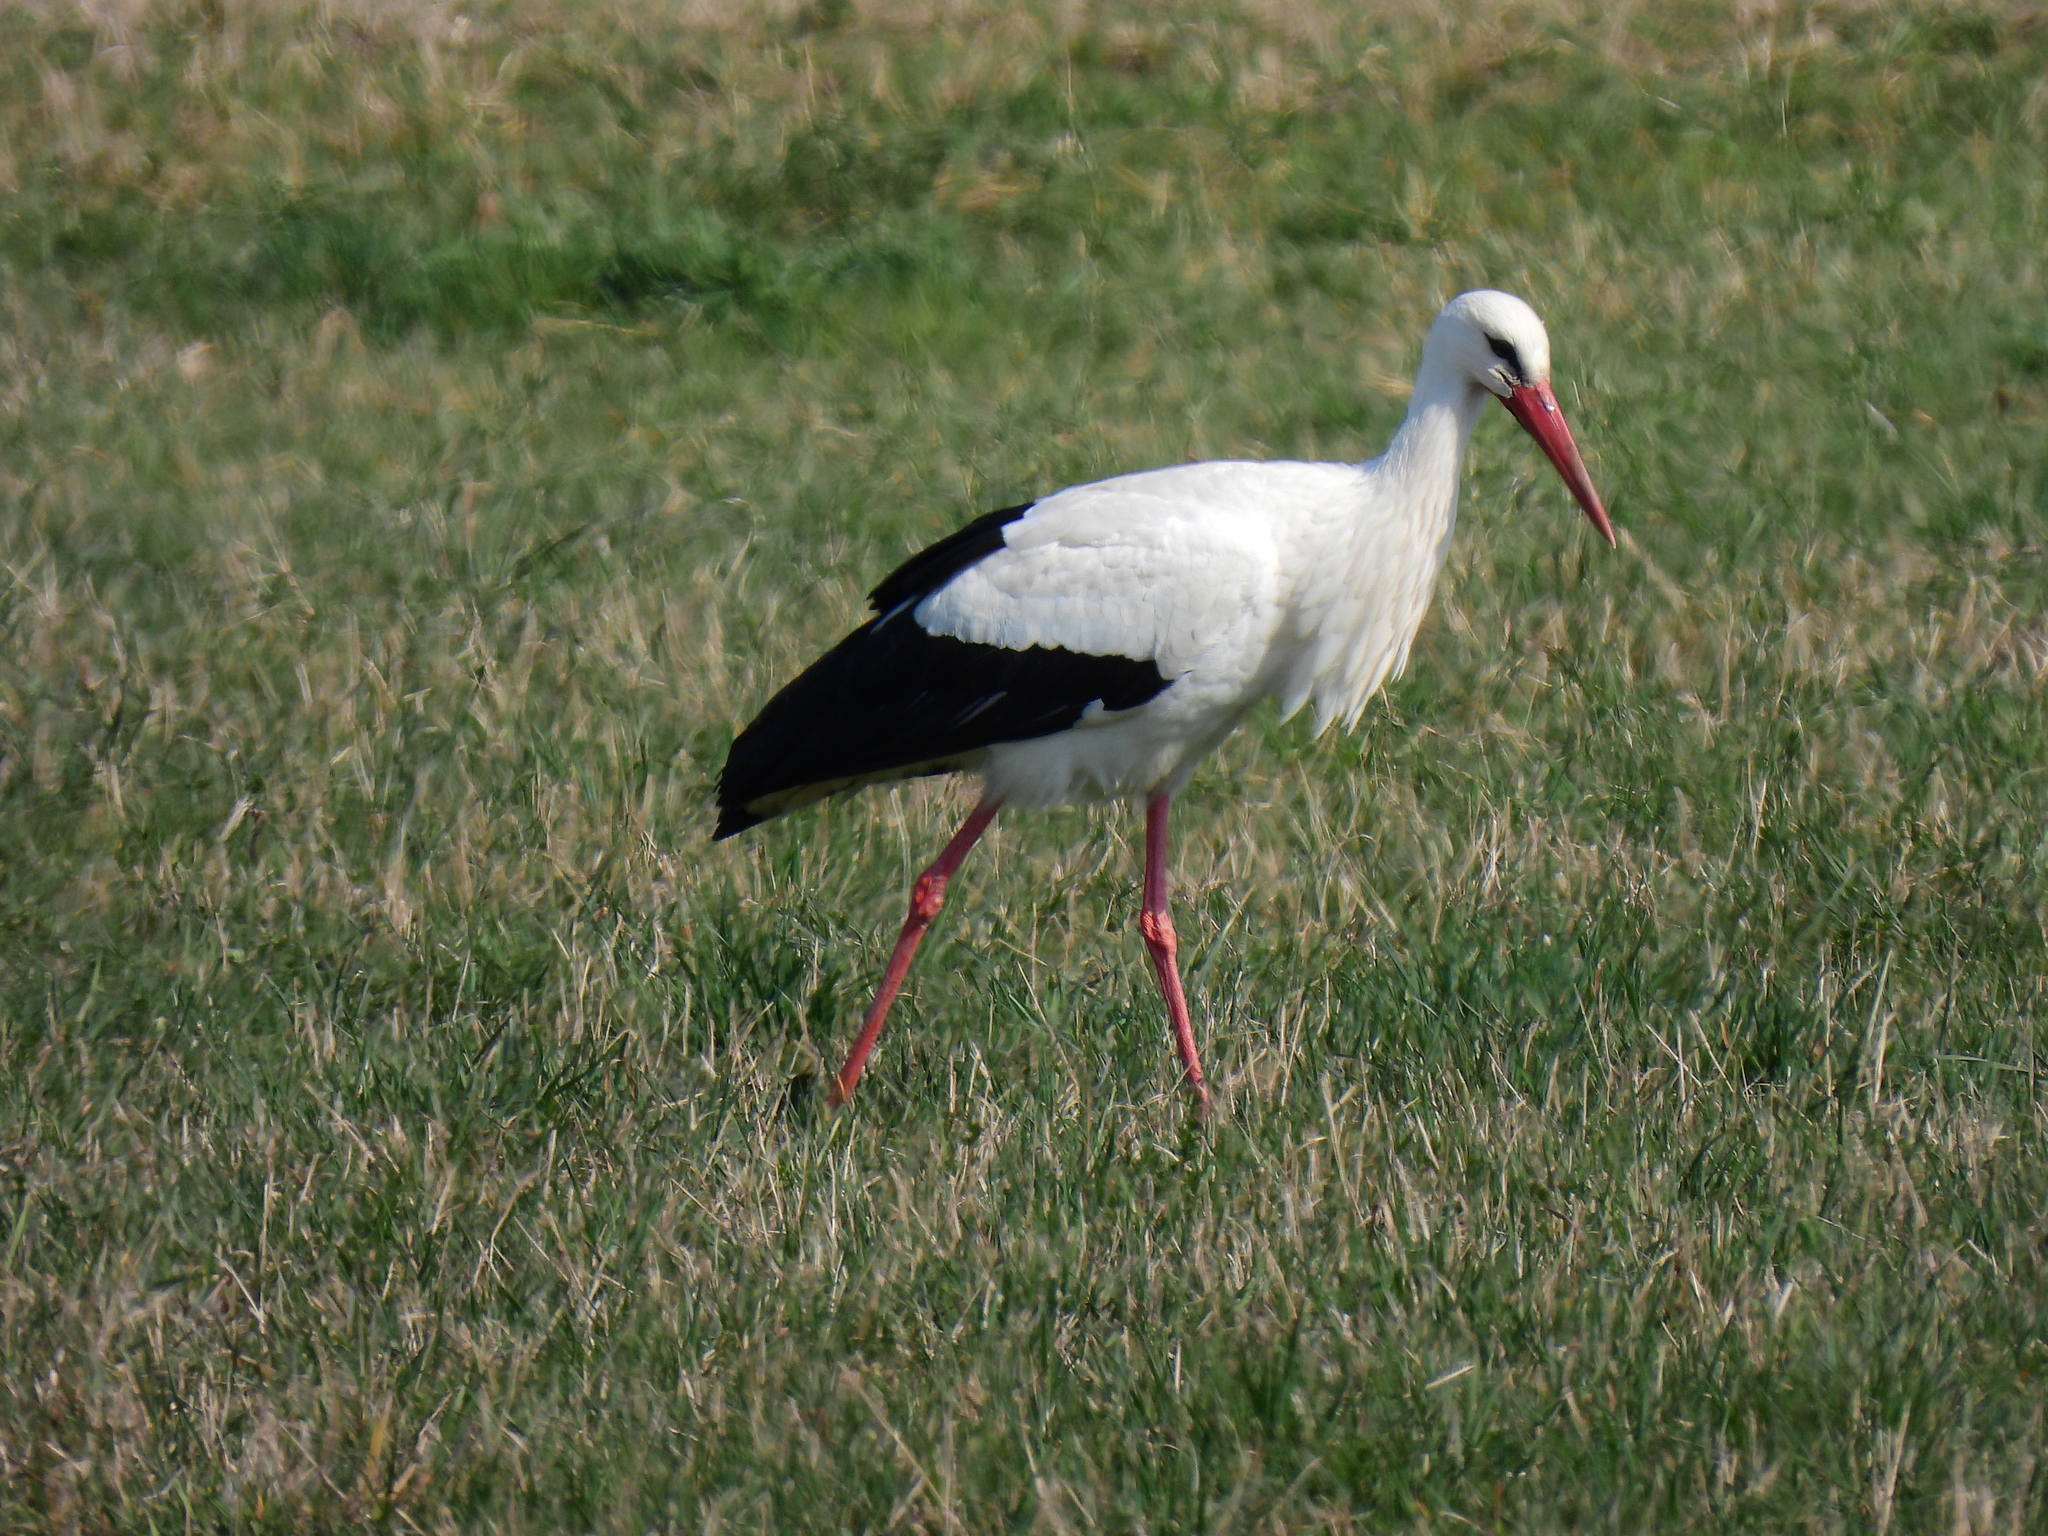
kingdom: Animalia
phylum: Chordata
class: Aves
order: Ciconiiformes
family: Ciconiidae
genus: Ciconia
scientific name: Ciconia ciconia
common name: White stork
